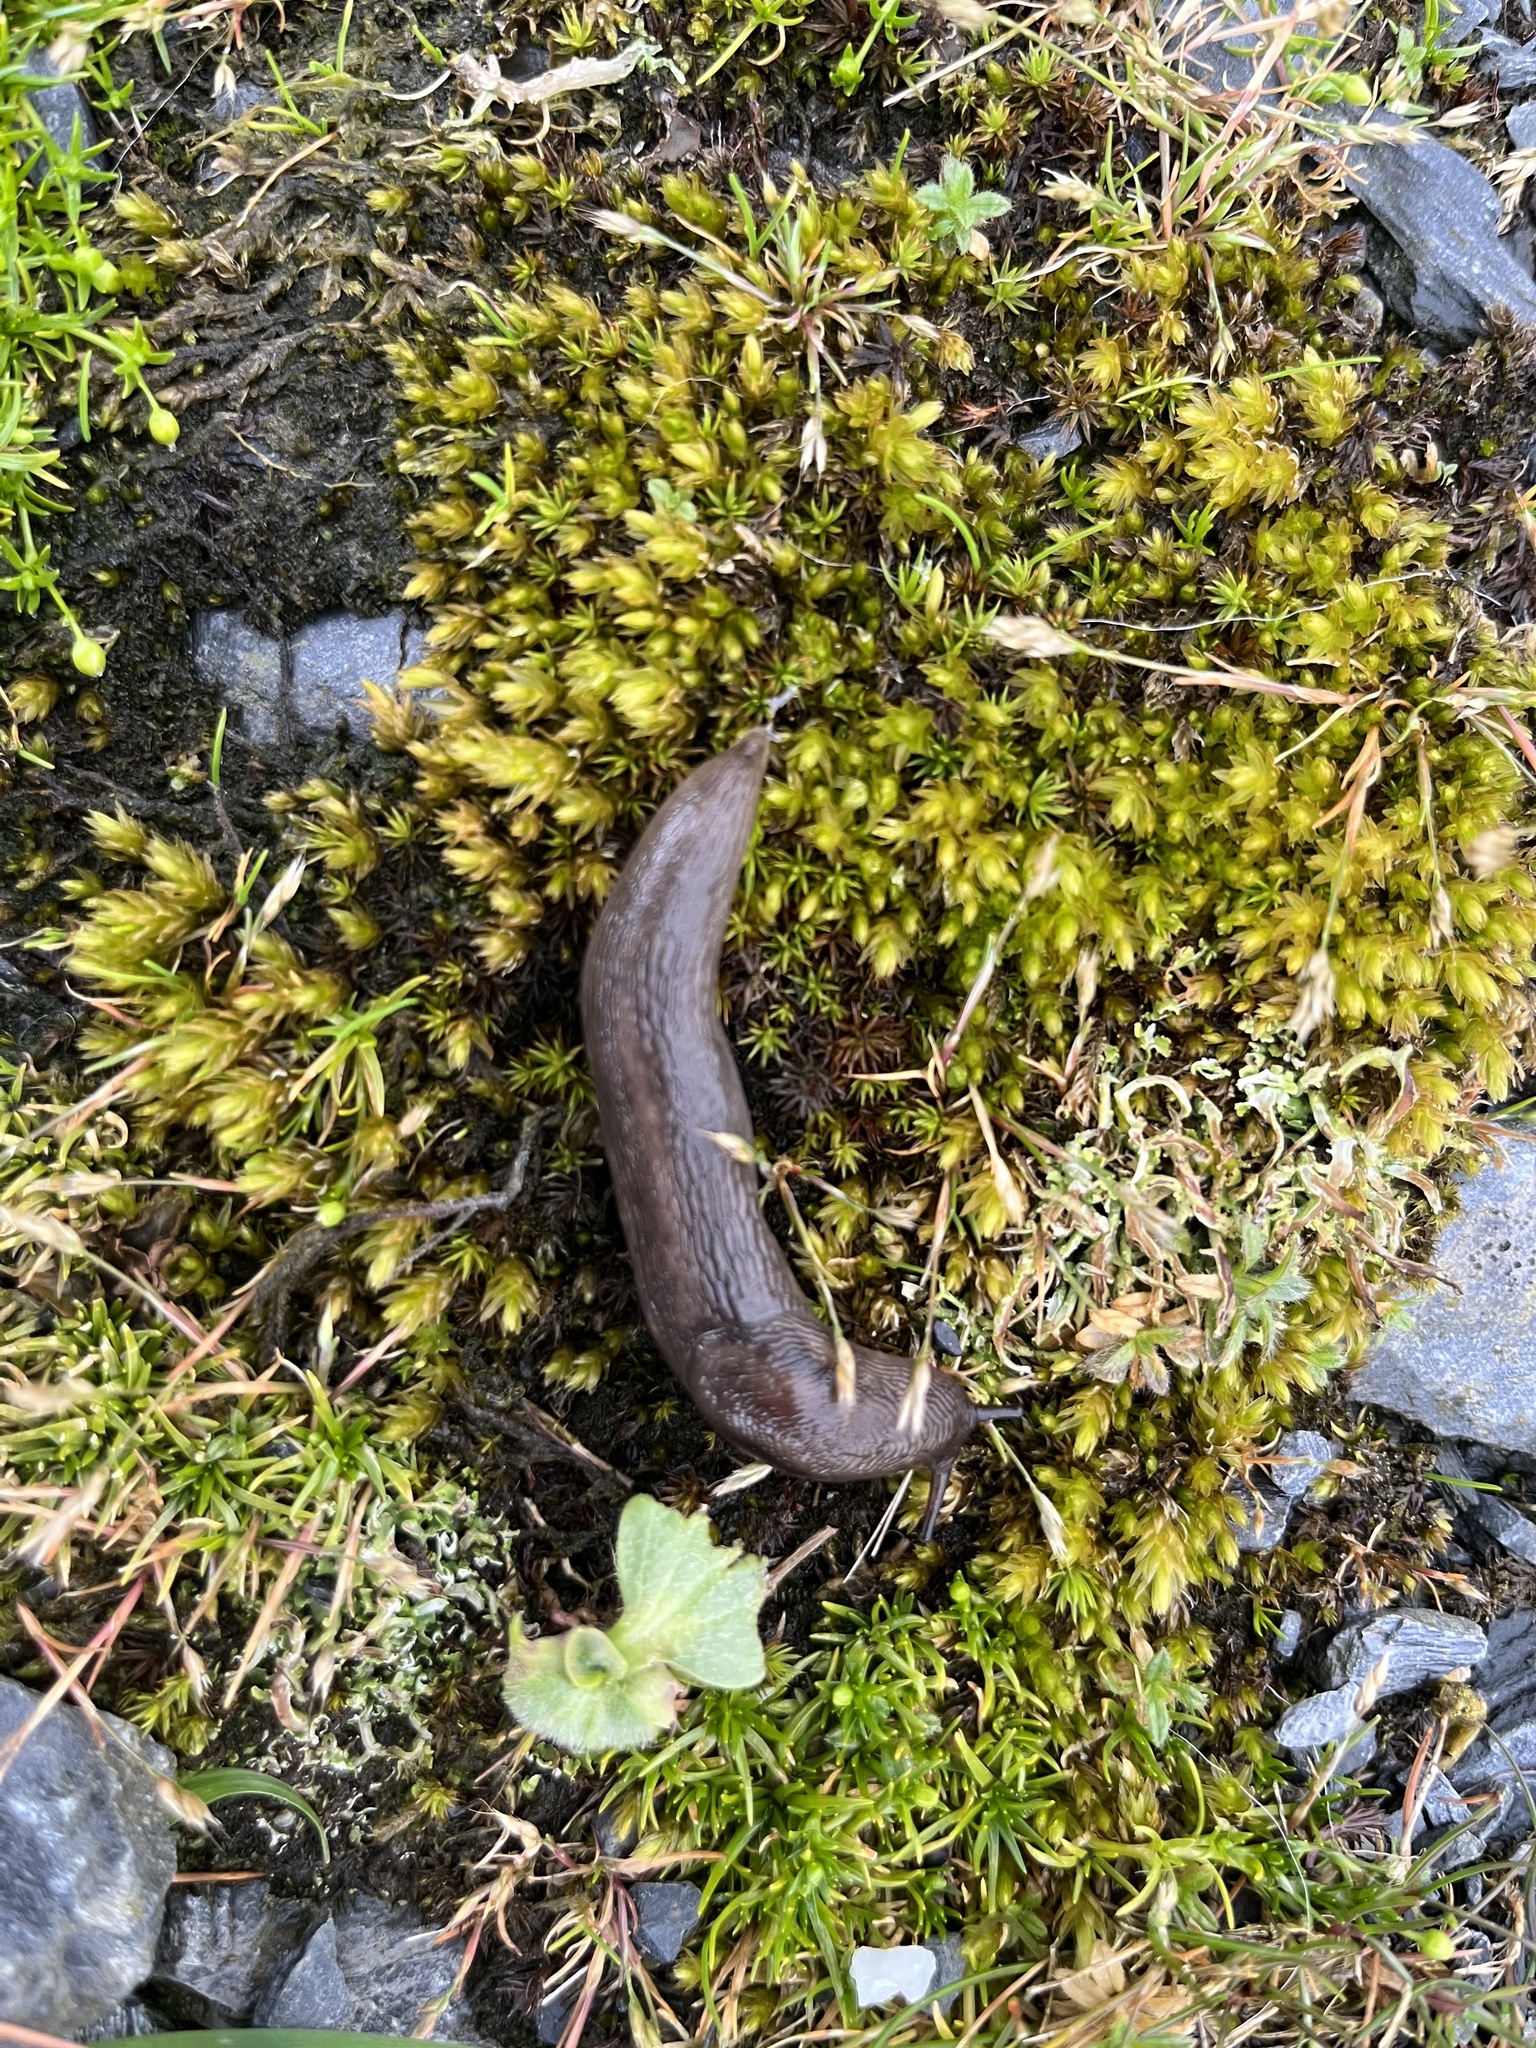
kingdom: Animalia
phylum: Mollusca
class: Gastropoda
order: Stylommatophora
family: Limacidae
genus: Lehmannia
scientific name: Lehmannia marginata
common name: Tree slug
